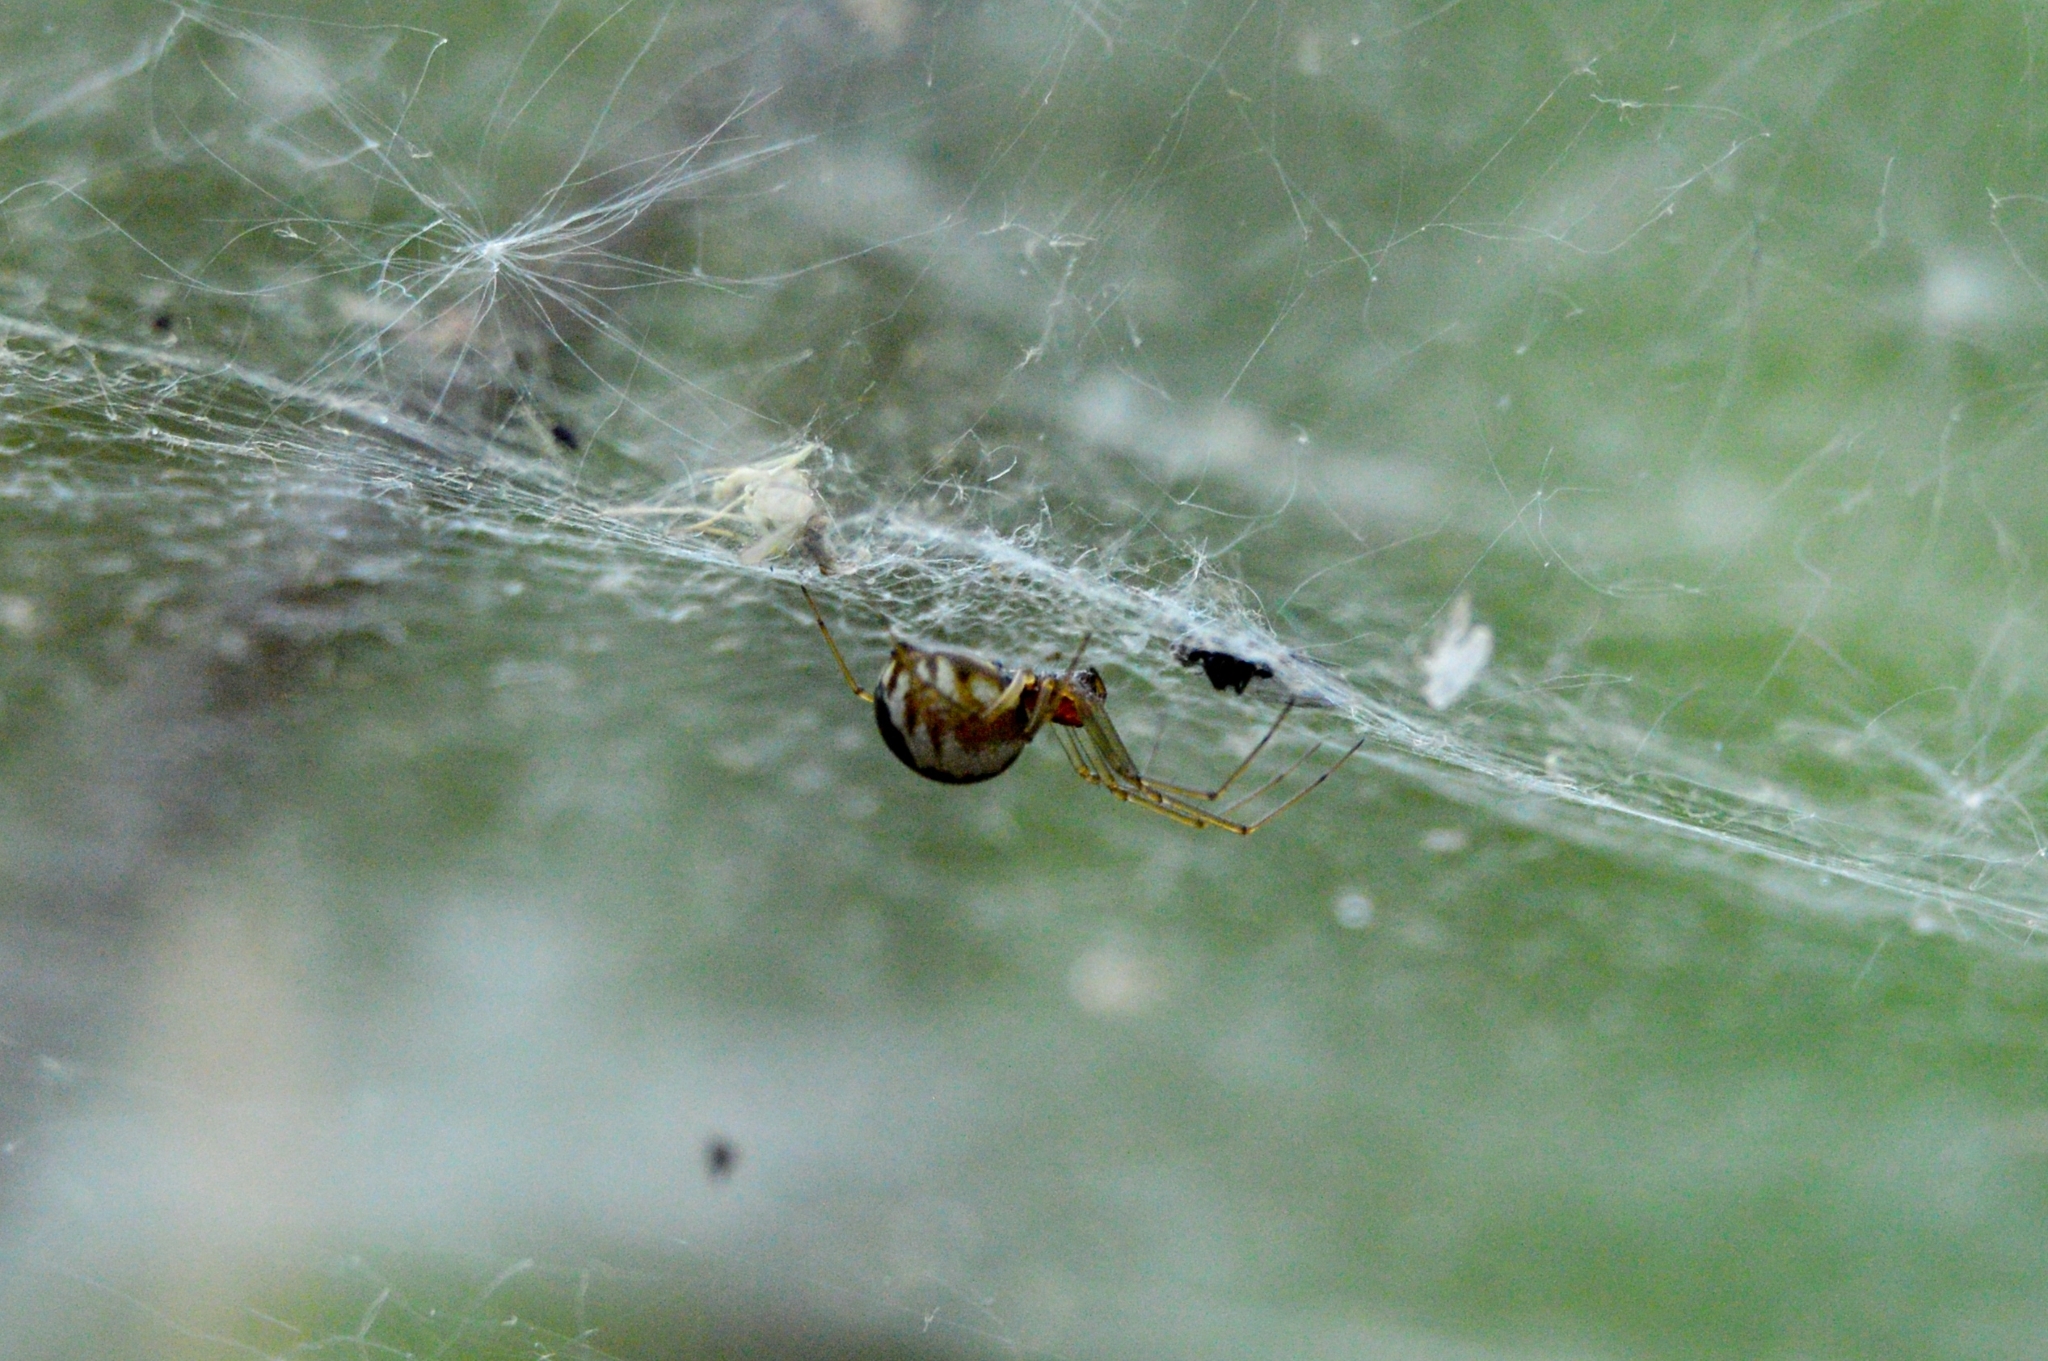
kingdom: Animalia
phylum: Arthropoda
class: Arachnida
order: Araneae
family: Linyphiidae
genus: Neriene
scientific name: Neriene peltata
